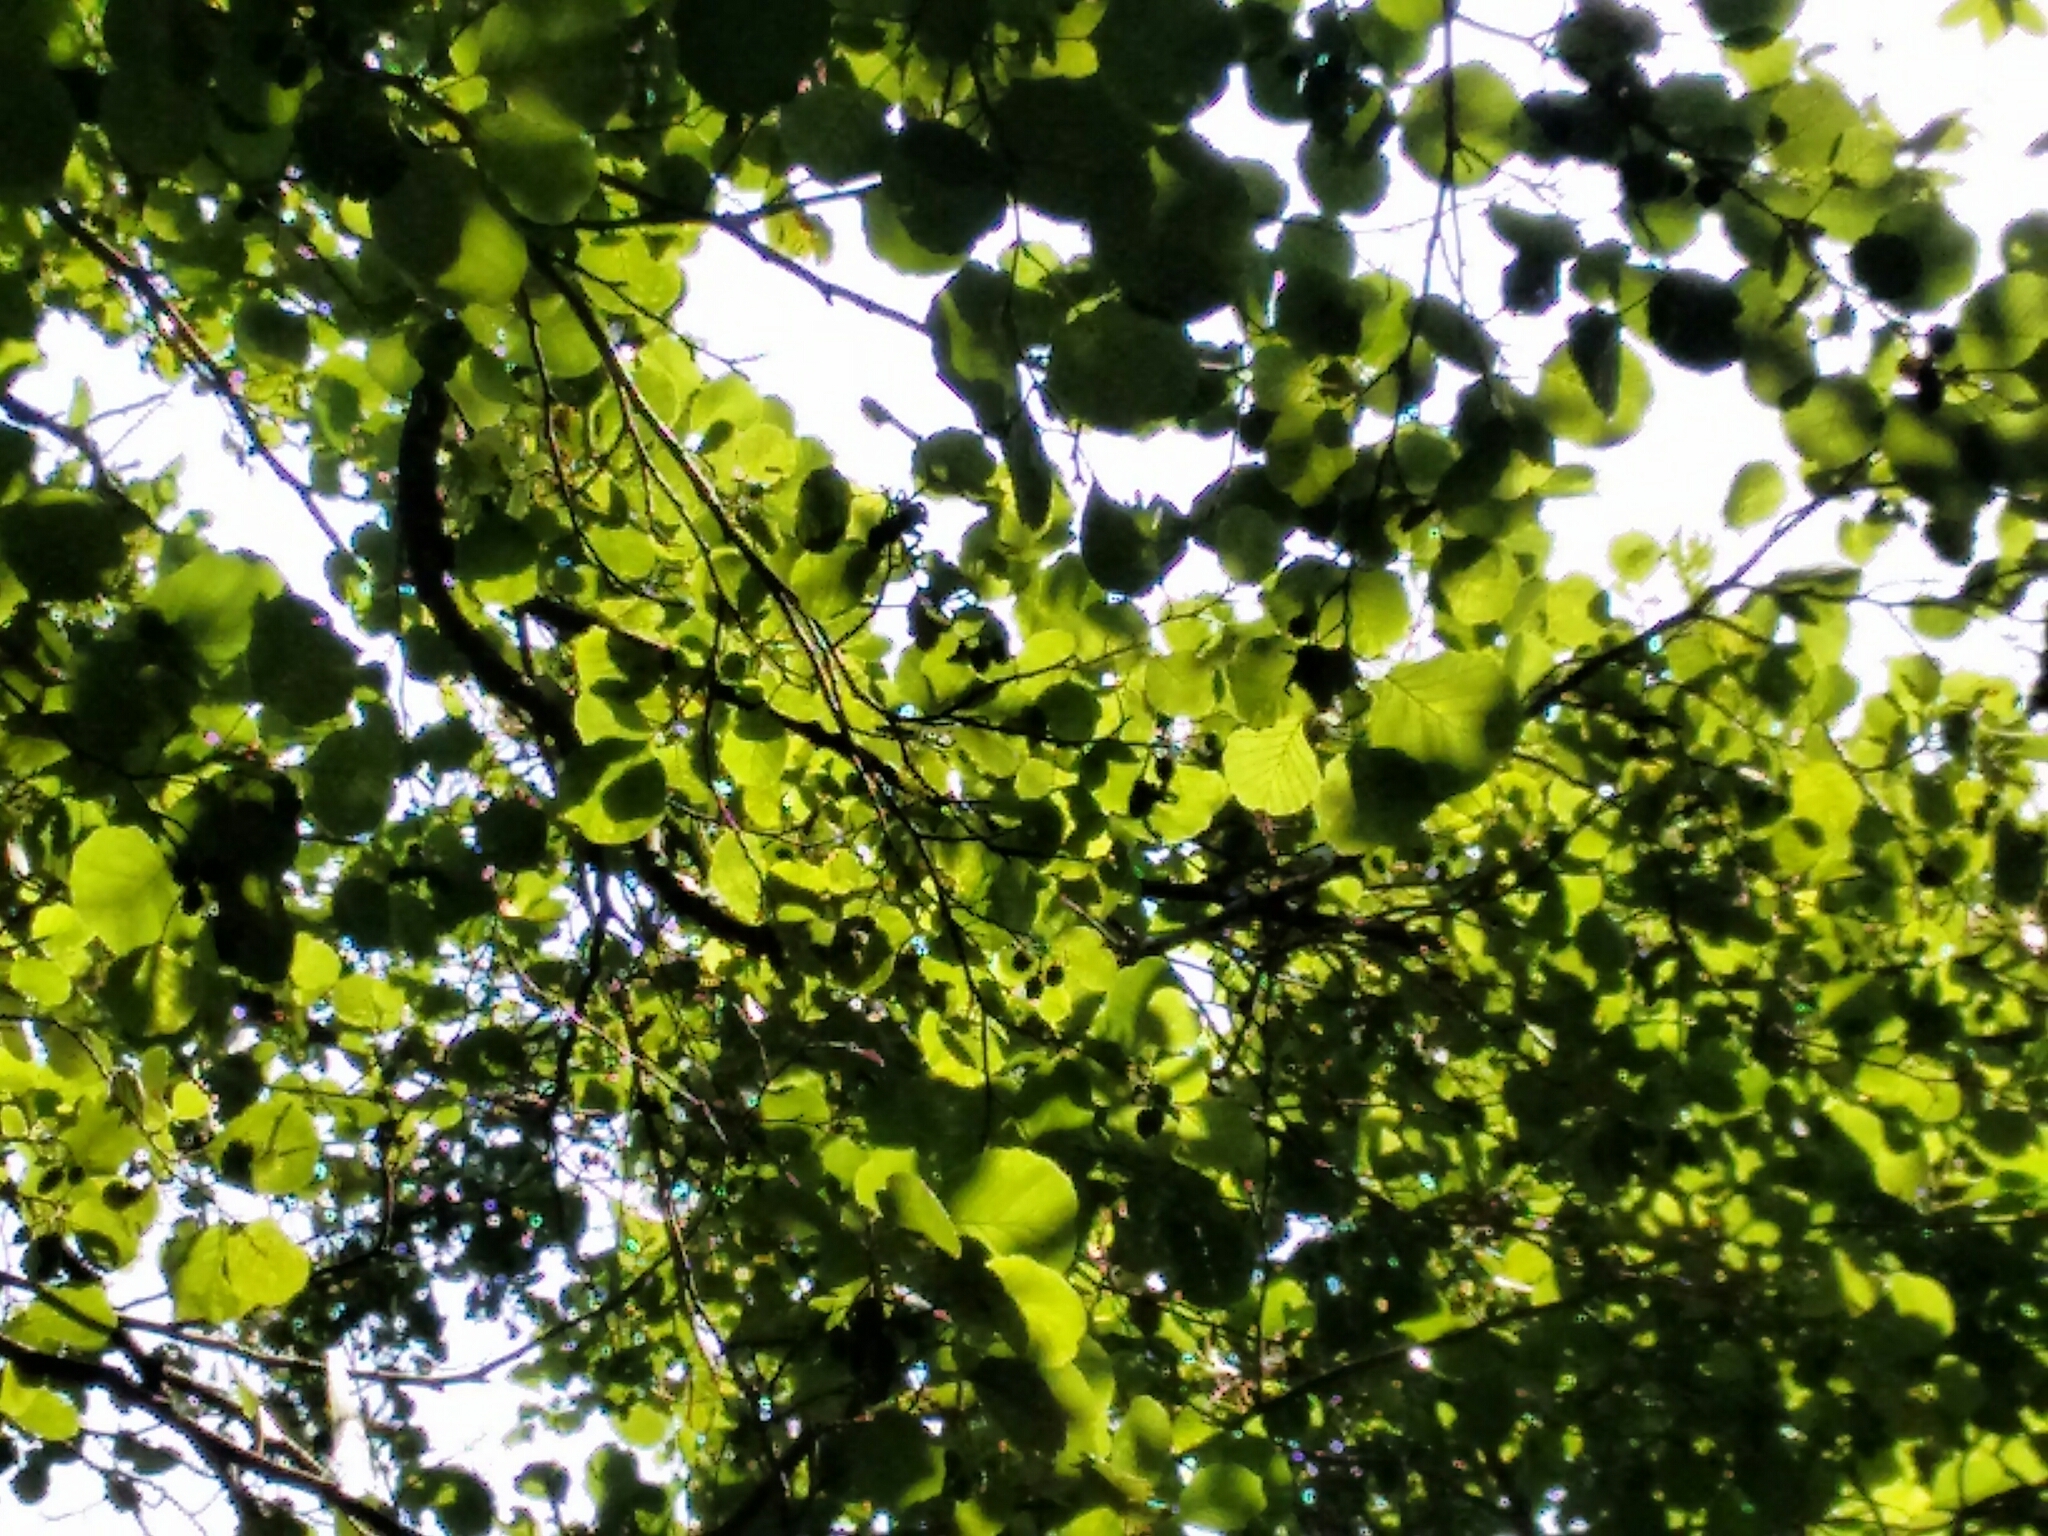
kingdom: Plantae
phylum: Tracheophyta
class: Magnoliopsida
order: Fagales
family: Betulaceae
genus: Alnus
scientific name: Alnus glutinosa
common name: Black alder
